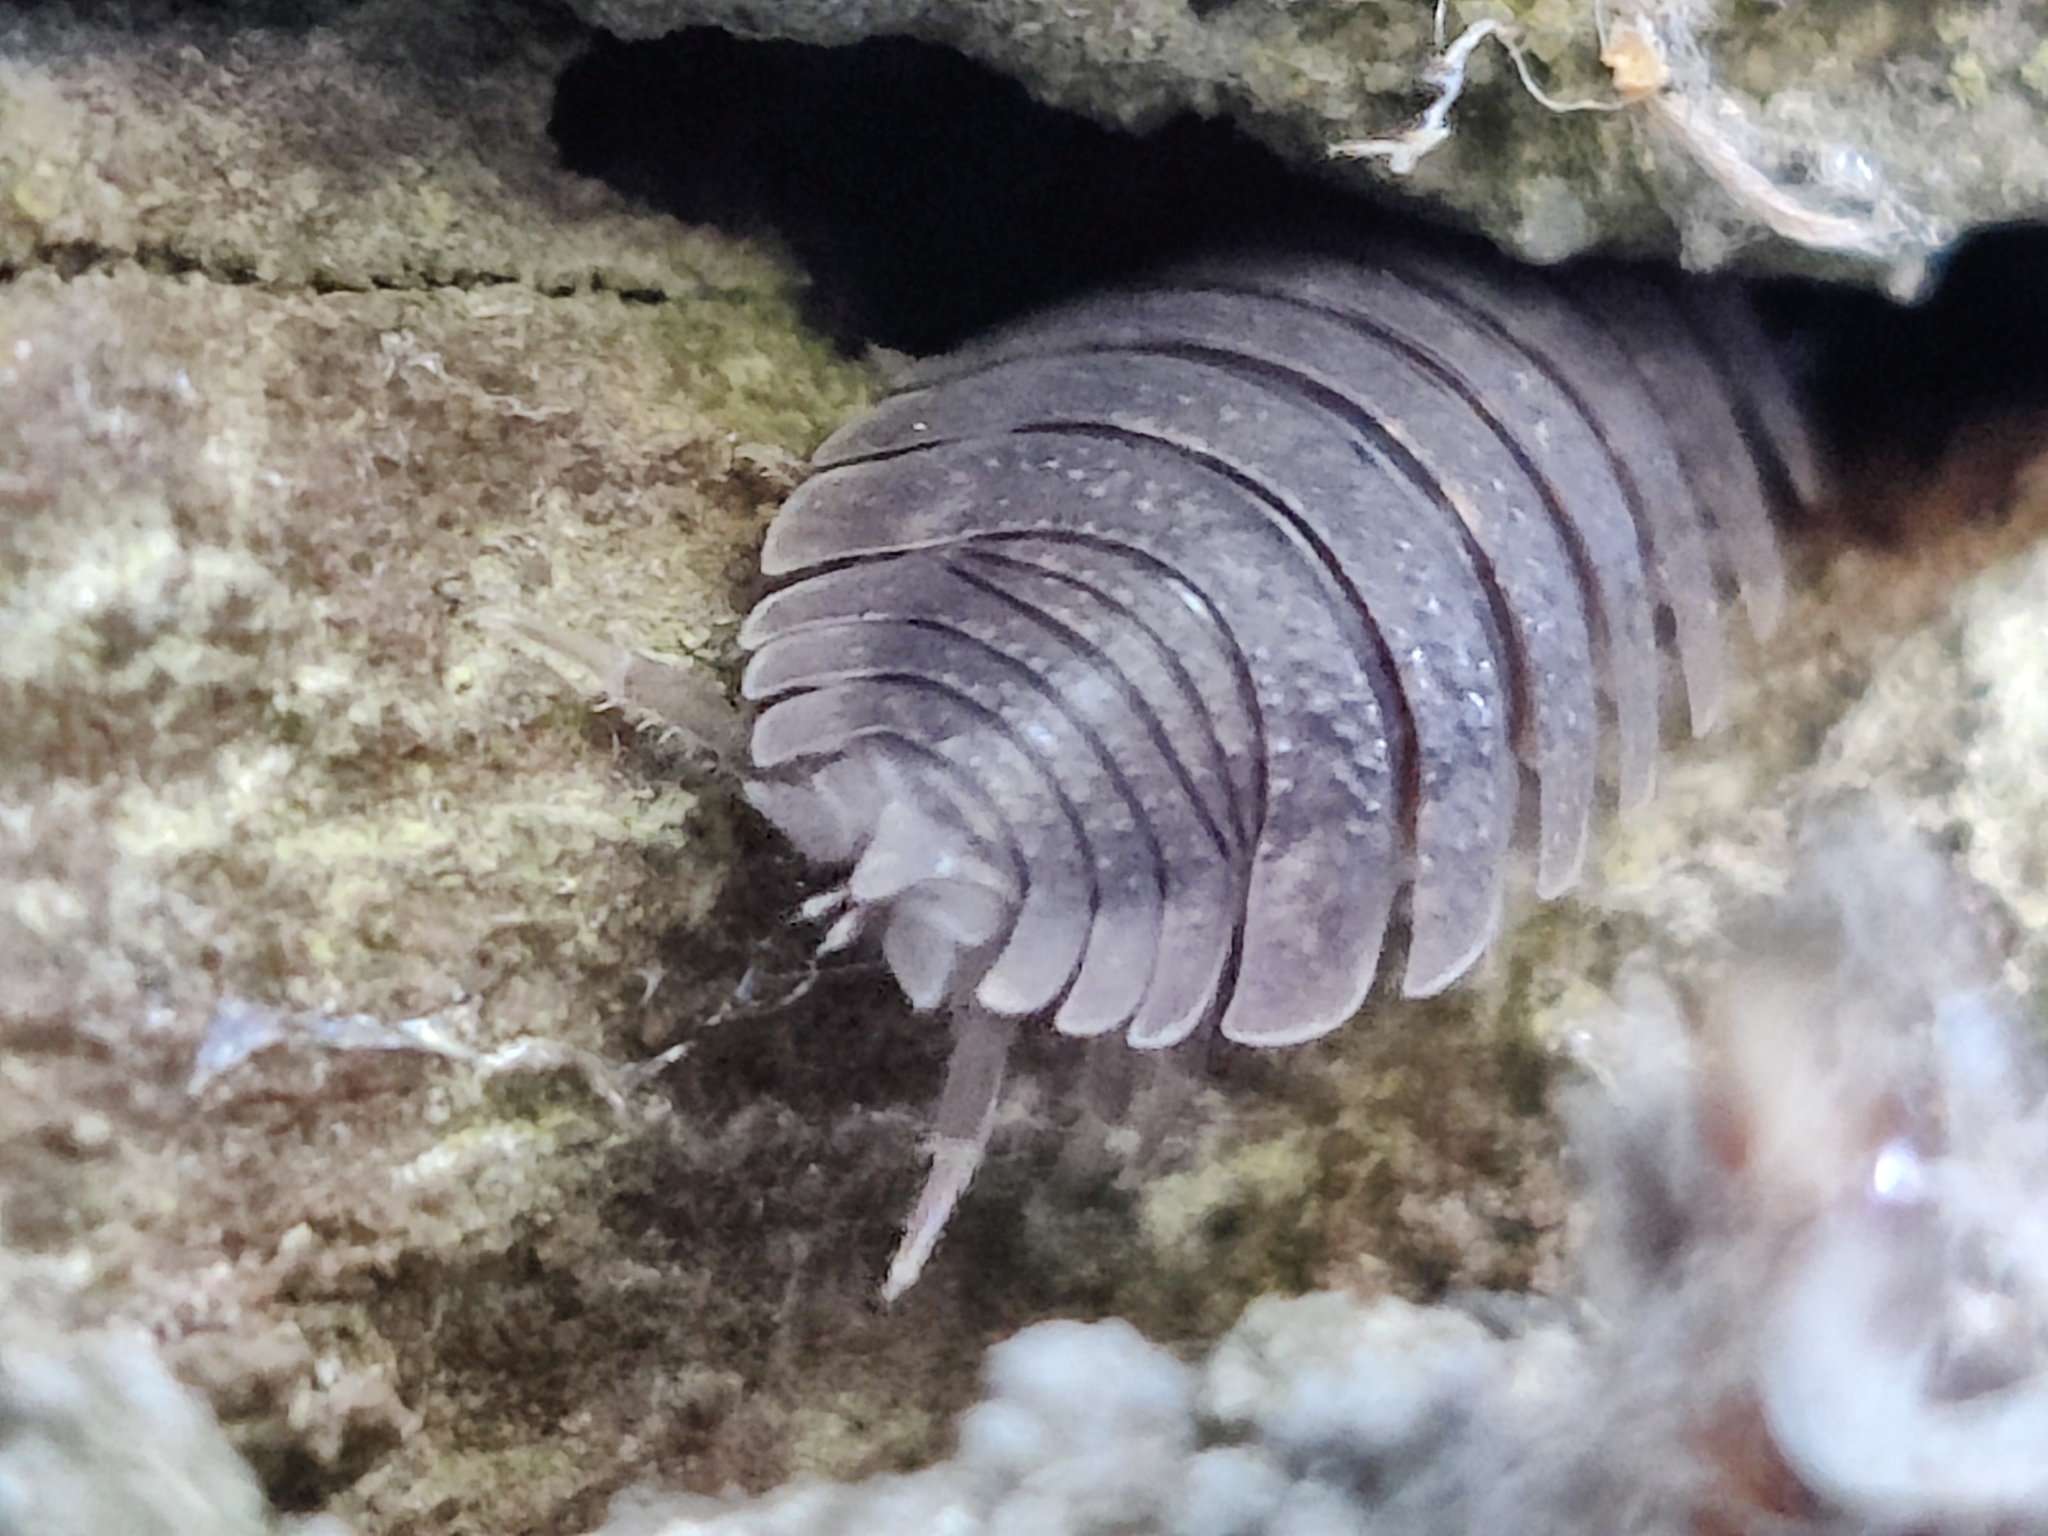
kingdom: Animalia
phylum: Arthropoda
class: Malacostraca
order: Isopoda
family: Porcellionidae
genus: Porcellio
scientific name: Porcellio scaber
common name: Common rough woodlouse
